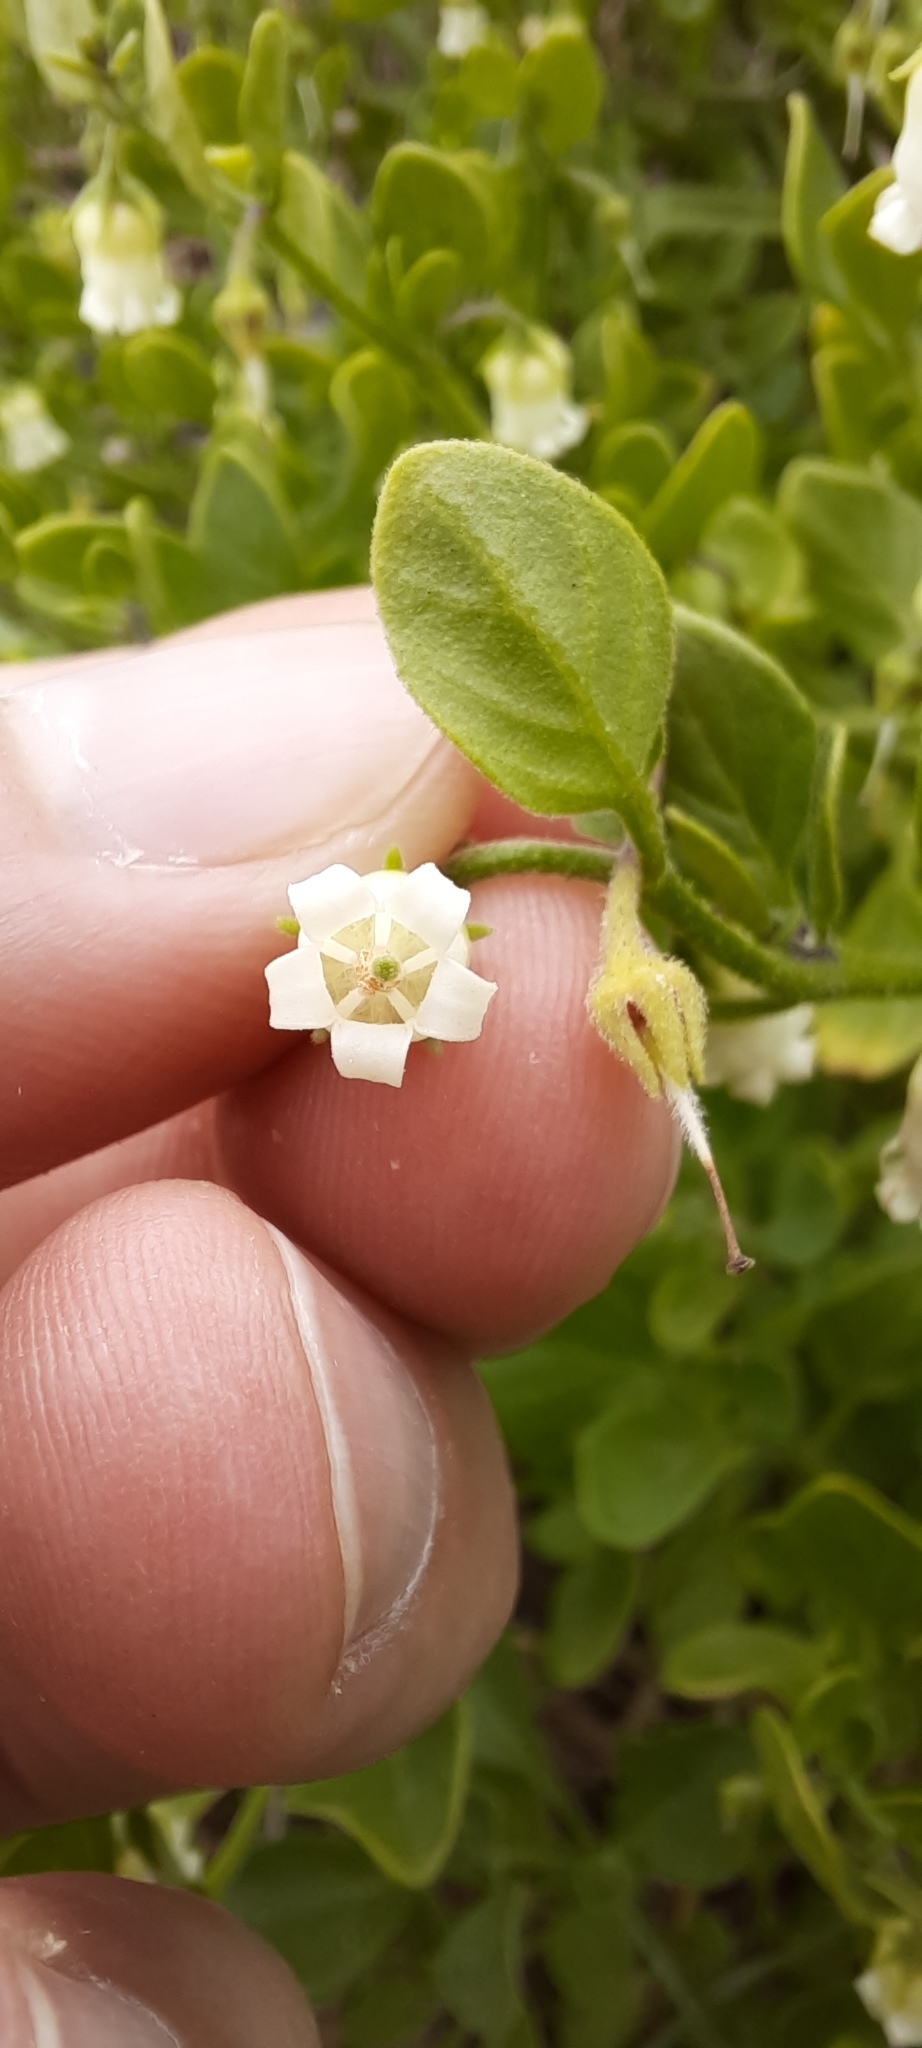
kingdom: Plantae
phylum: Tracheophyta
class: Magnoliopsida
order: Solanales
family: Solanaceae
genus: Salpichroa
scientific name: Salpichroa origanifolia
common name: Lily-of-the-valley-vine
